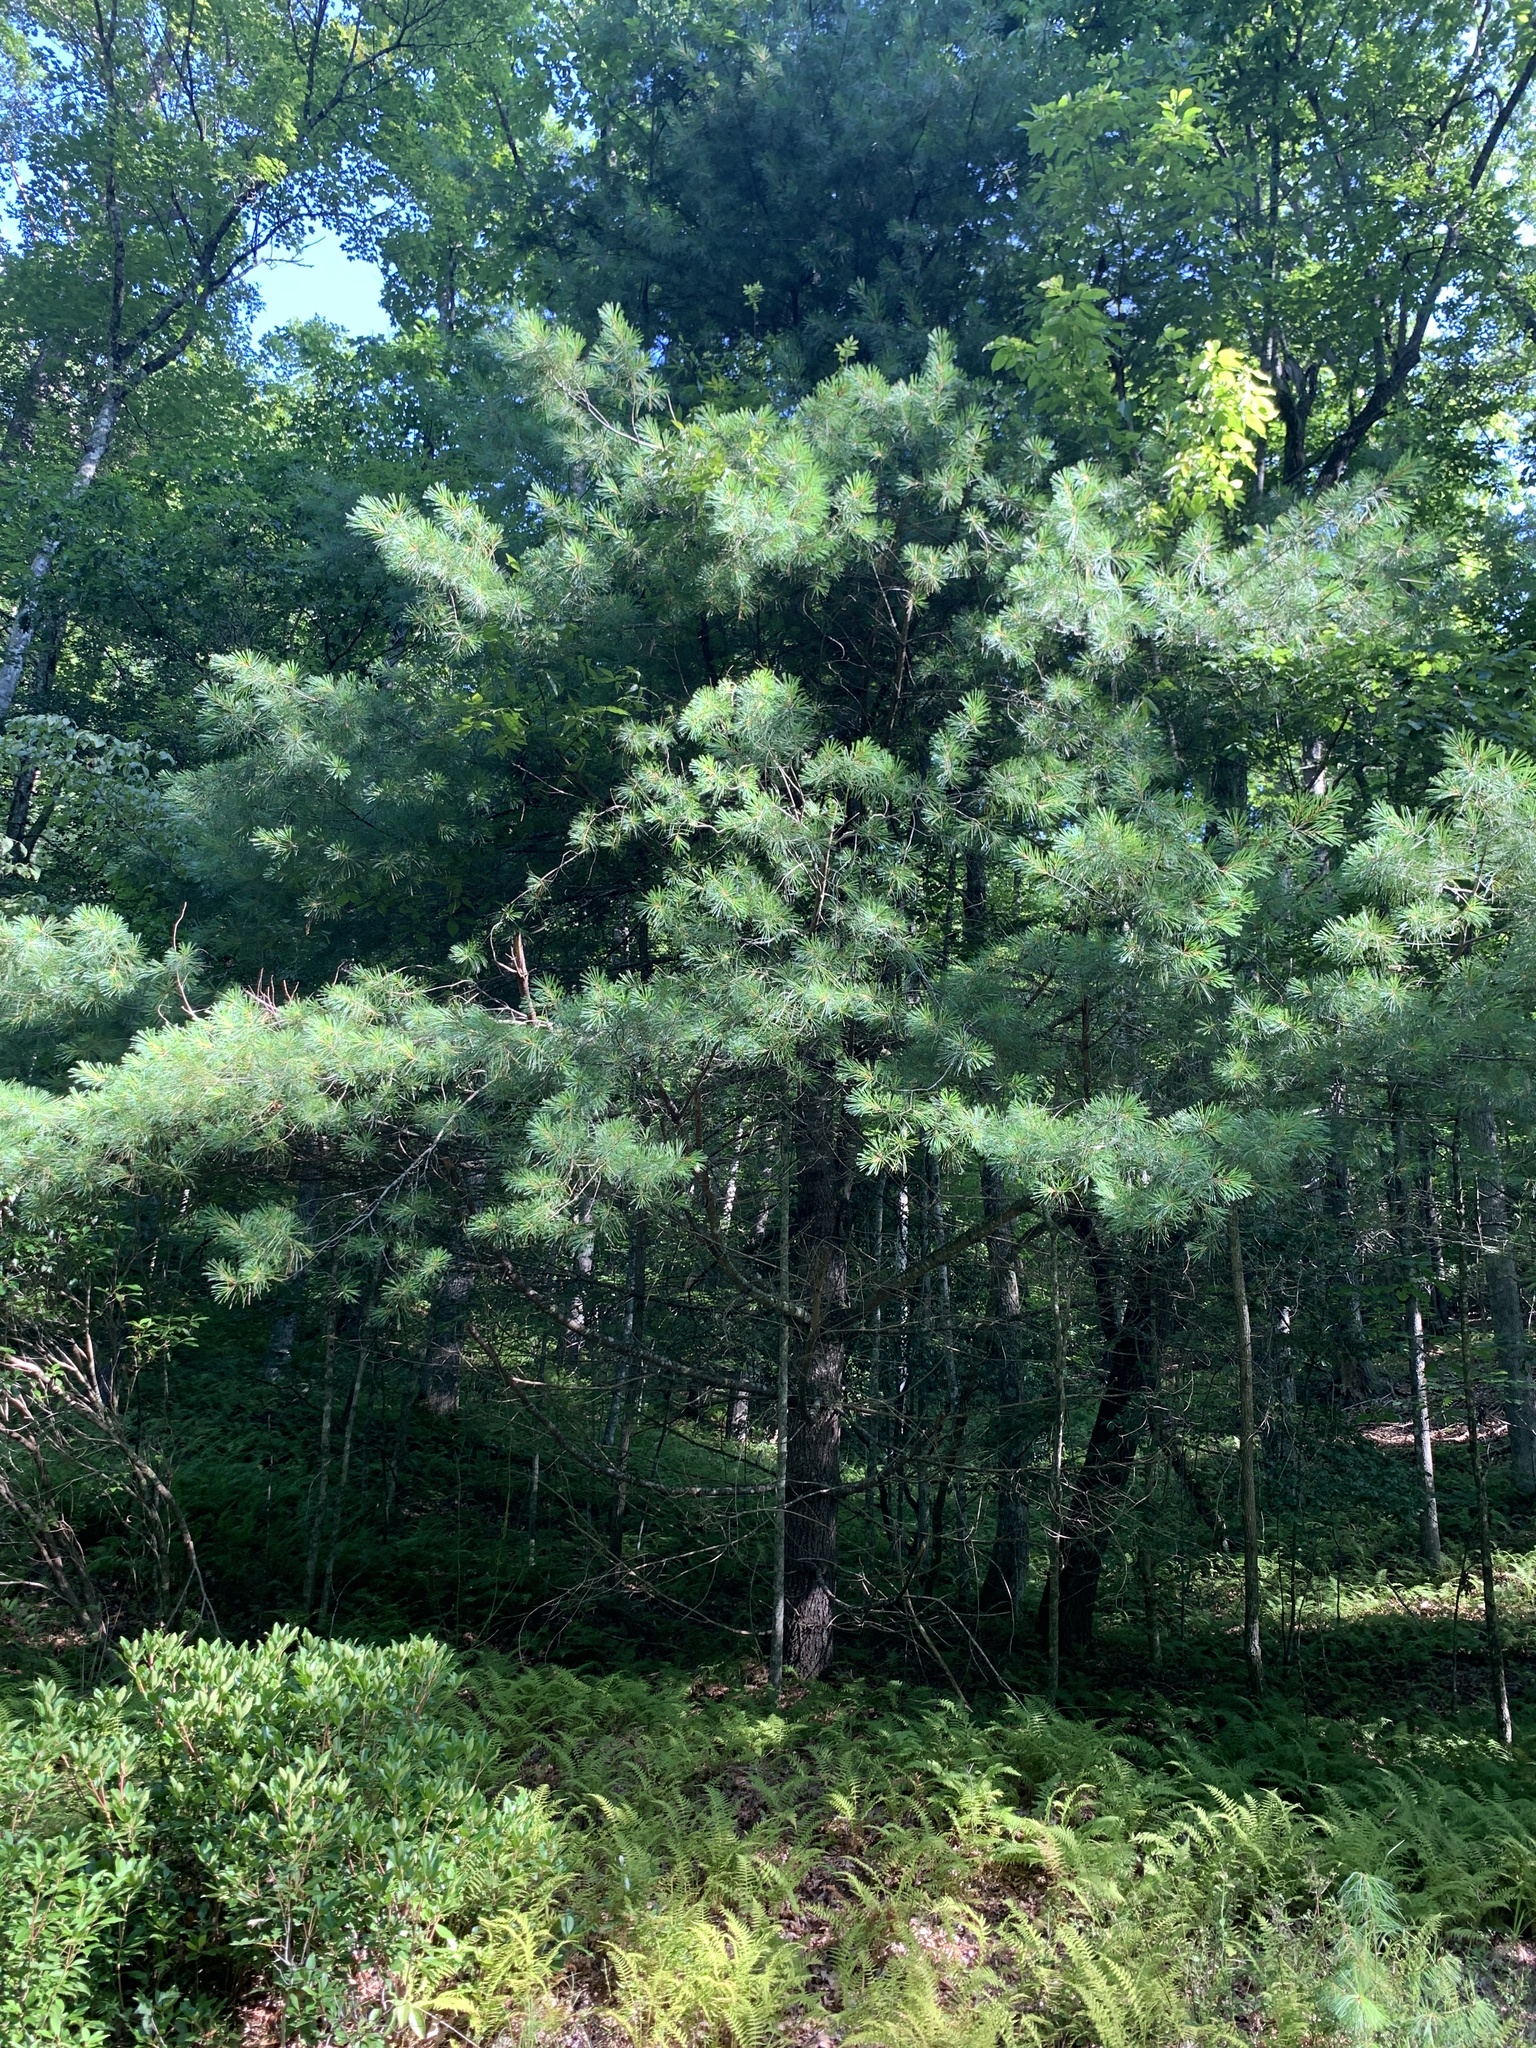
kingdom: Plantae
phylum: Tracheophyta
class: Pinopsida
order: Pinales
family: Pinaceae
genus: Pinus
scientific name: Pinus strobus
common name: Weymouth pine
